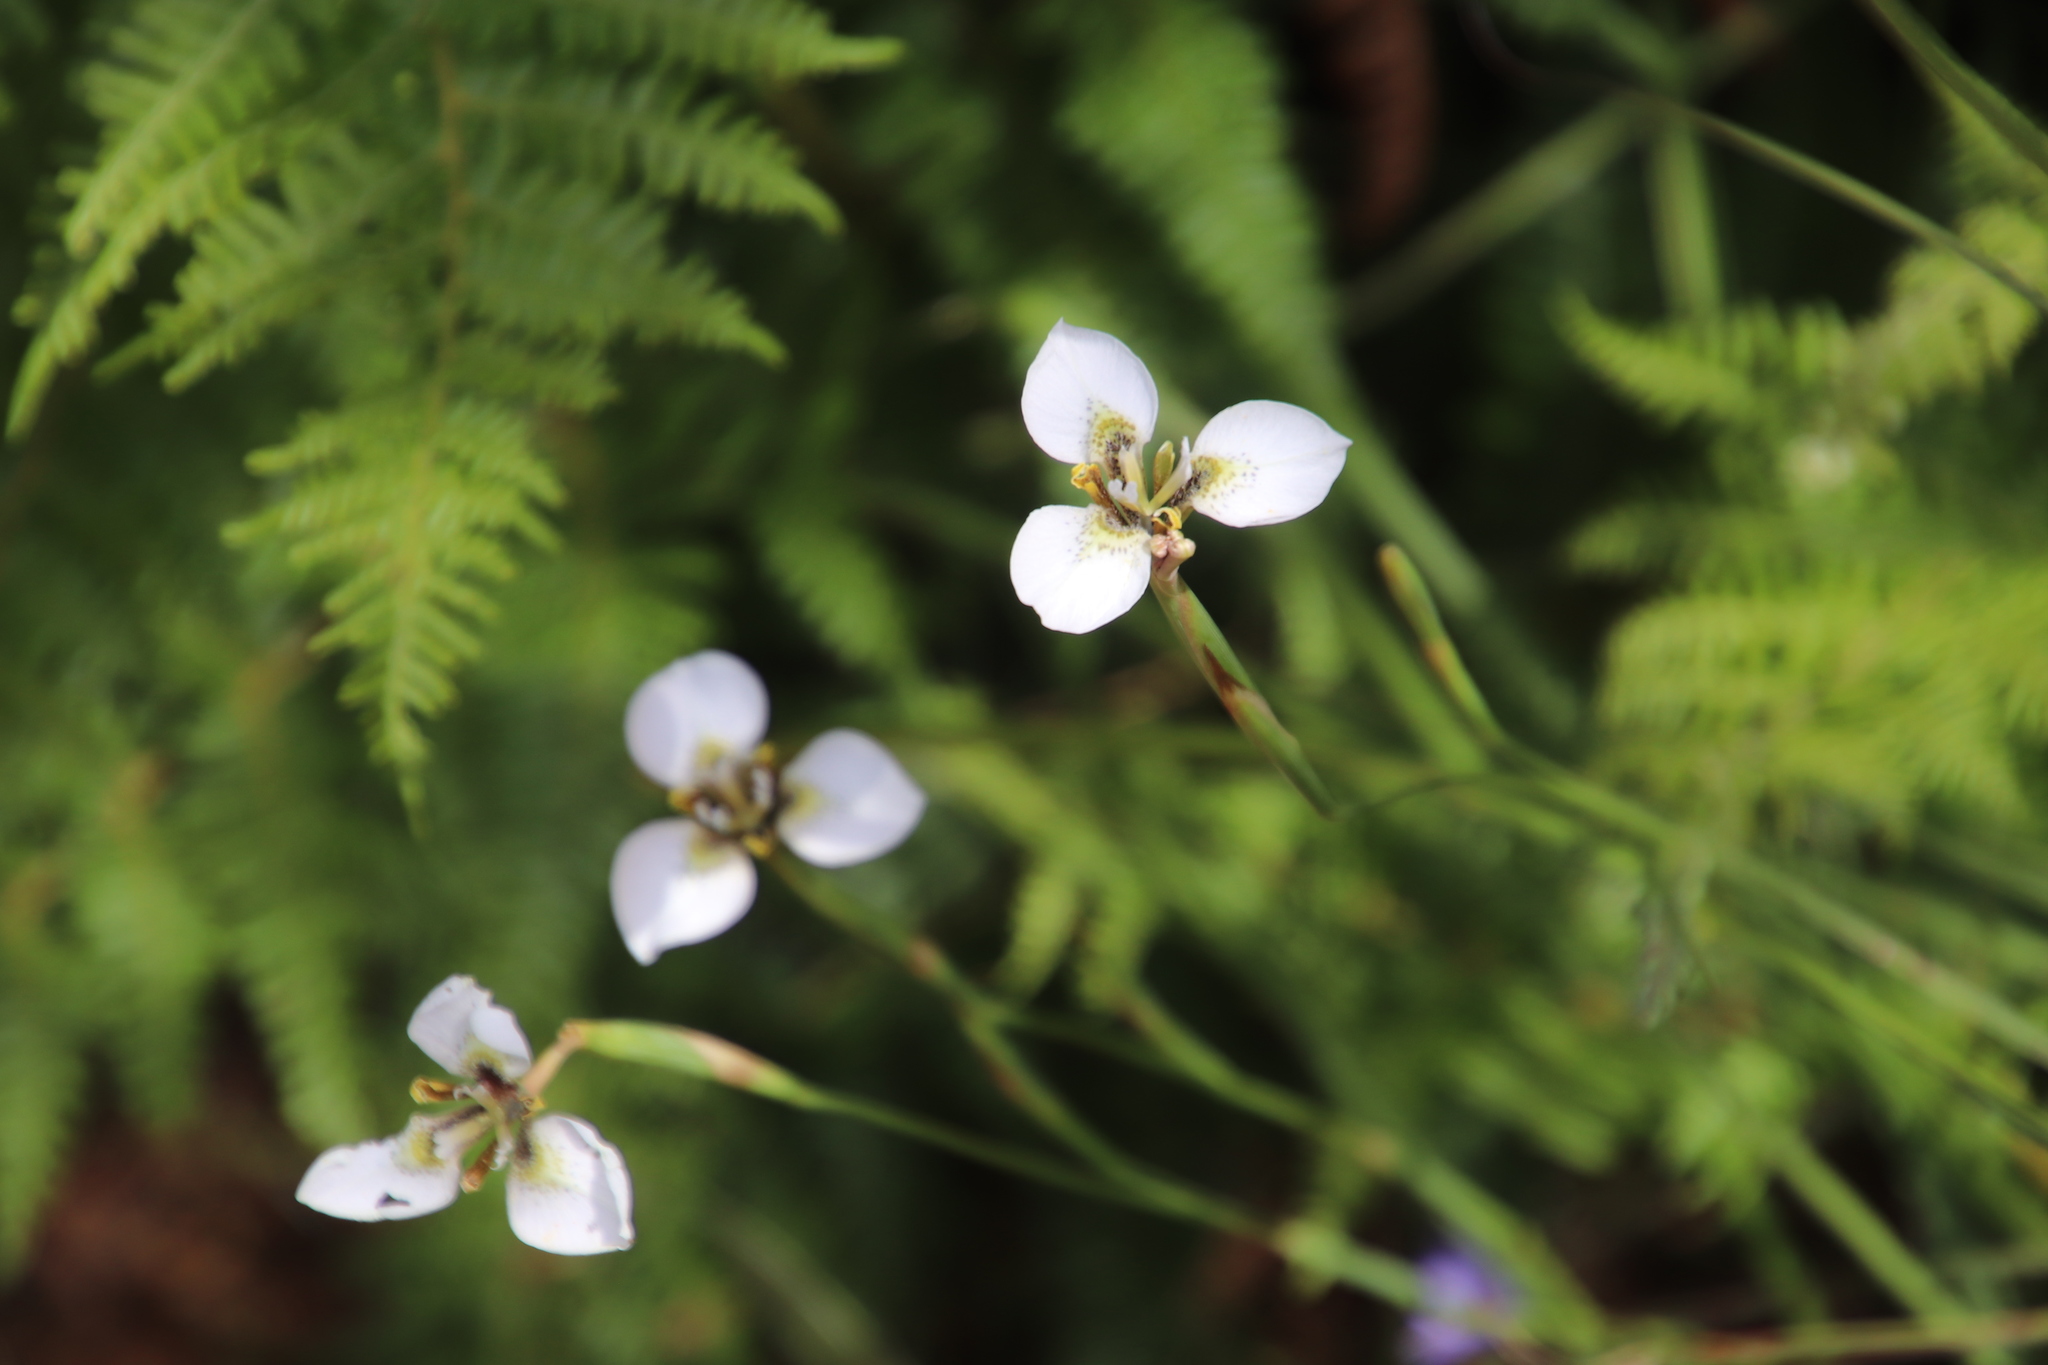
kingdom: Plantae
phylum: Tracheophyta
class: Liliopsida
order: Asparagales
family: Iridaceae
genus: Moraea
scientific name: Moraea tricuspidata
